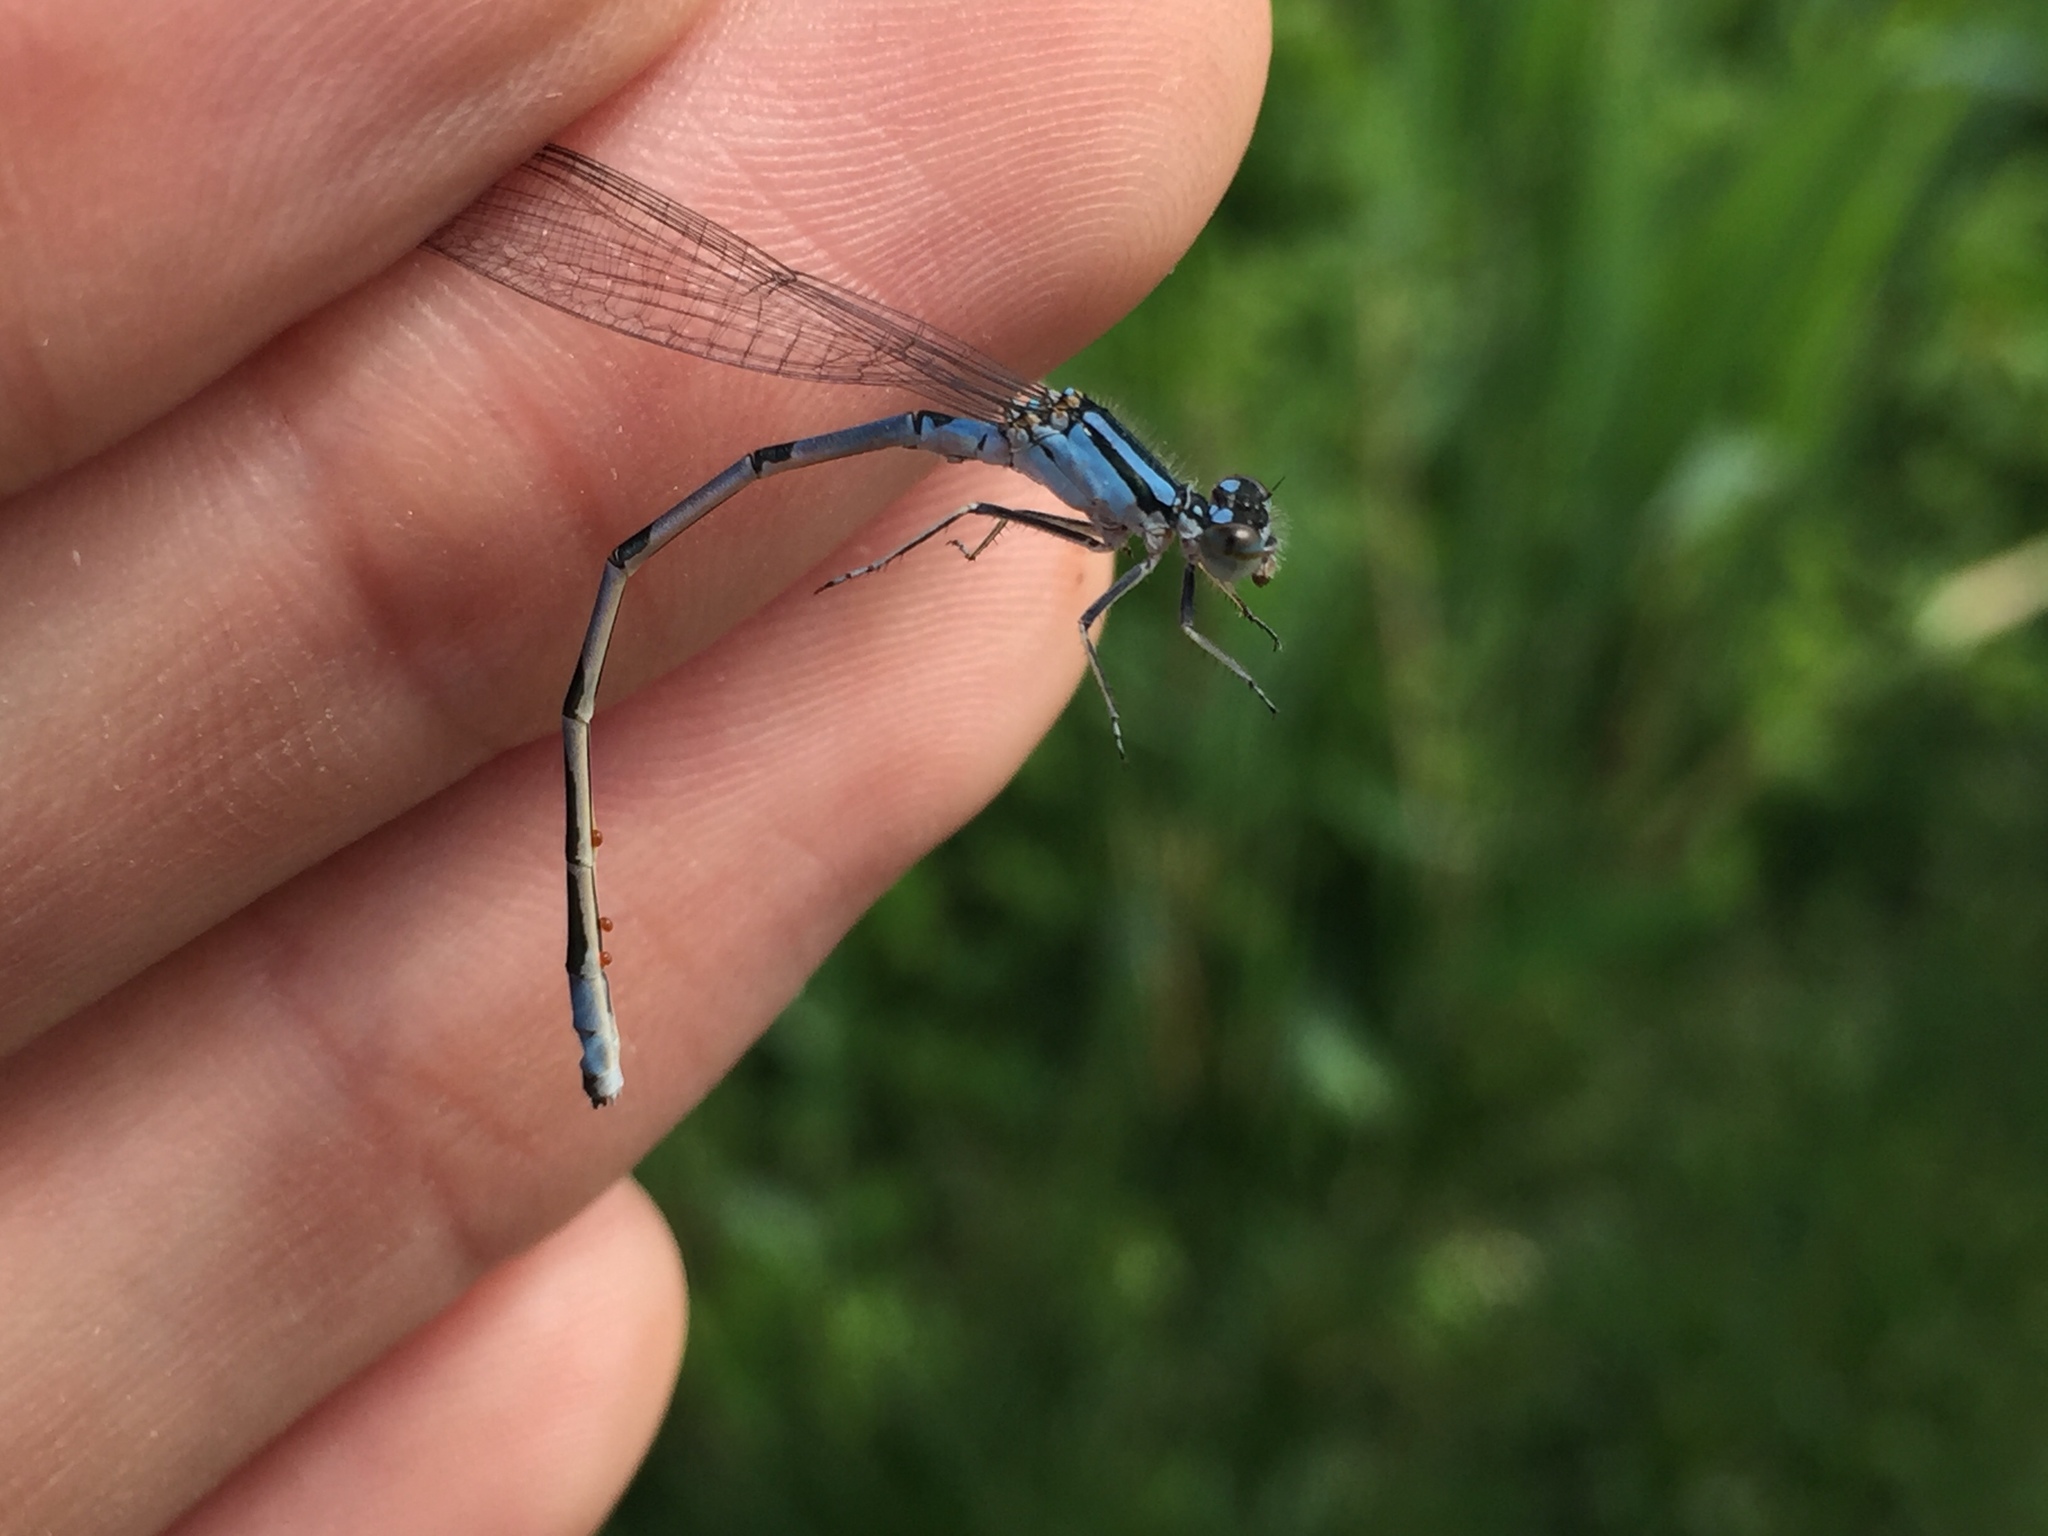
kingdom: Animalia
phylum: Arthropoda
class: Insecta
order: Odonata
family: Coenagrionidae
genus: Enallagma
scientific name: Enallagma ebrium
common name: Marsh bluet
